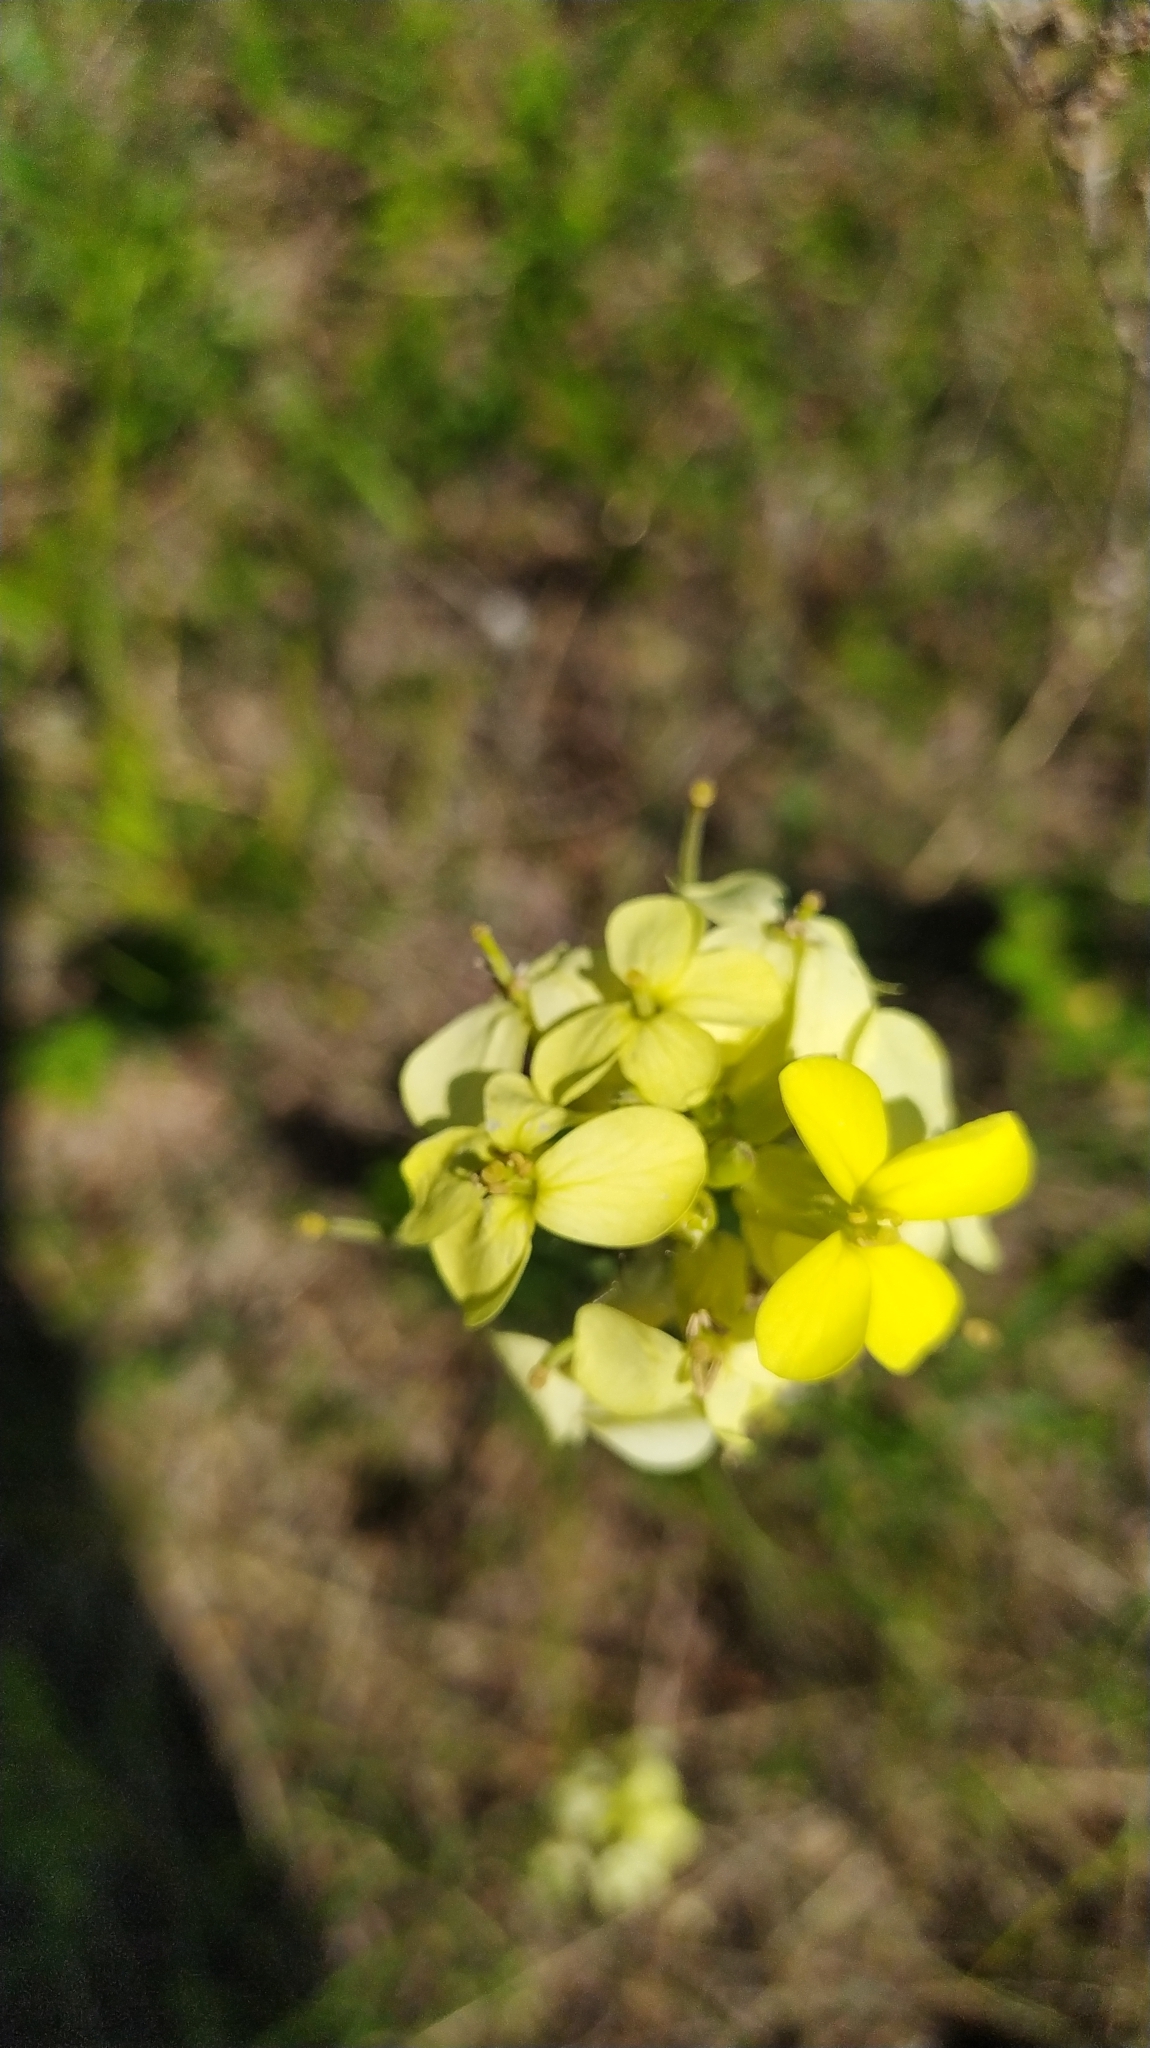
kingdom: Plantae
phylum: Tracheophyta
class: Magnoliopsida
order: Brassicales
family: Brassicaceae
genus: Erysimum
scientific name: Erysimum flavum
